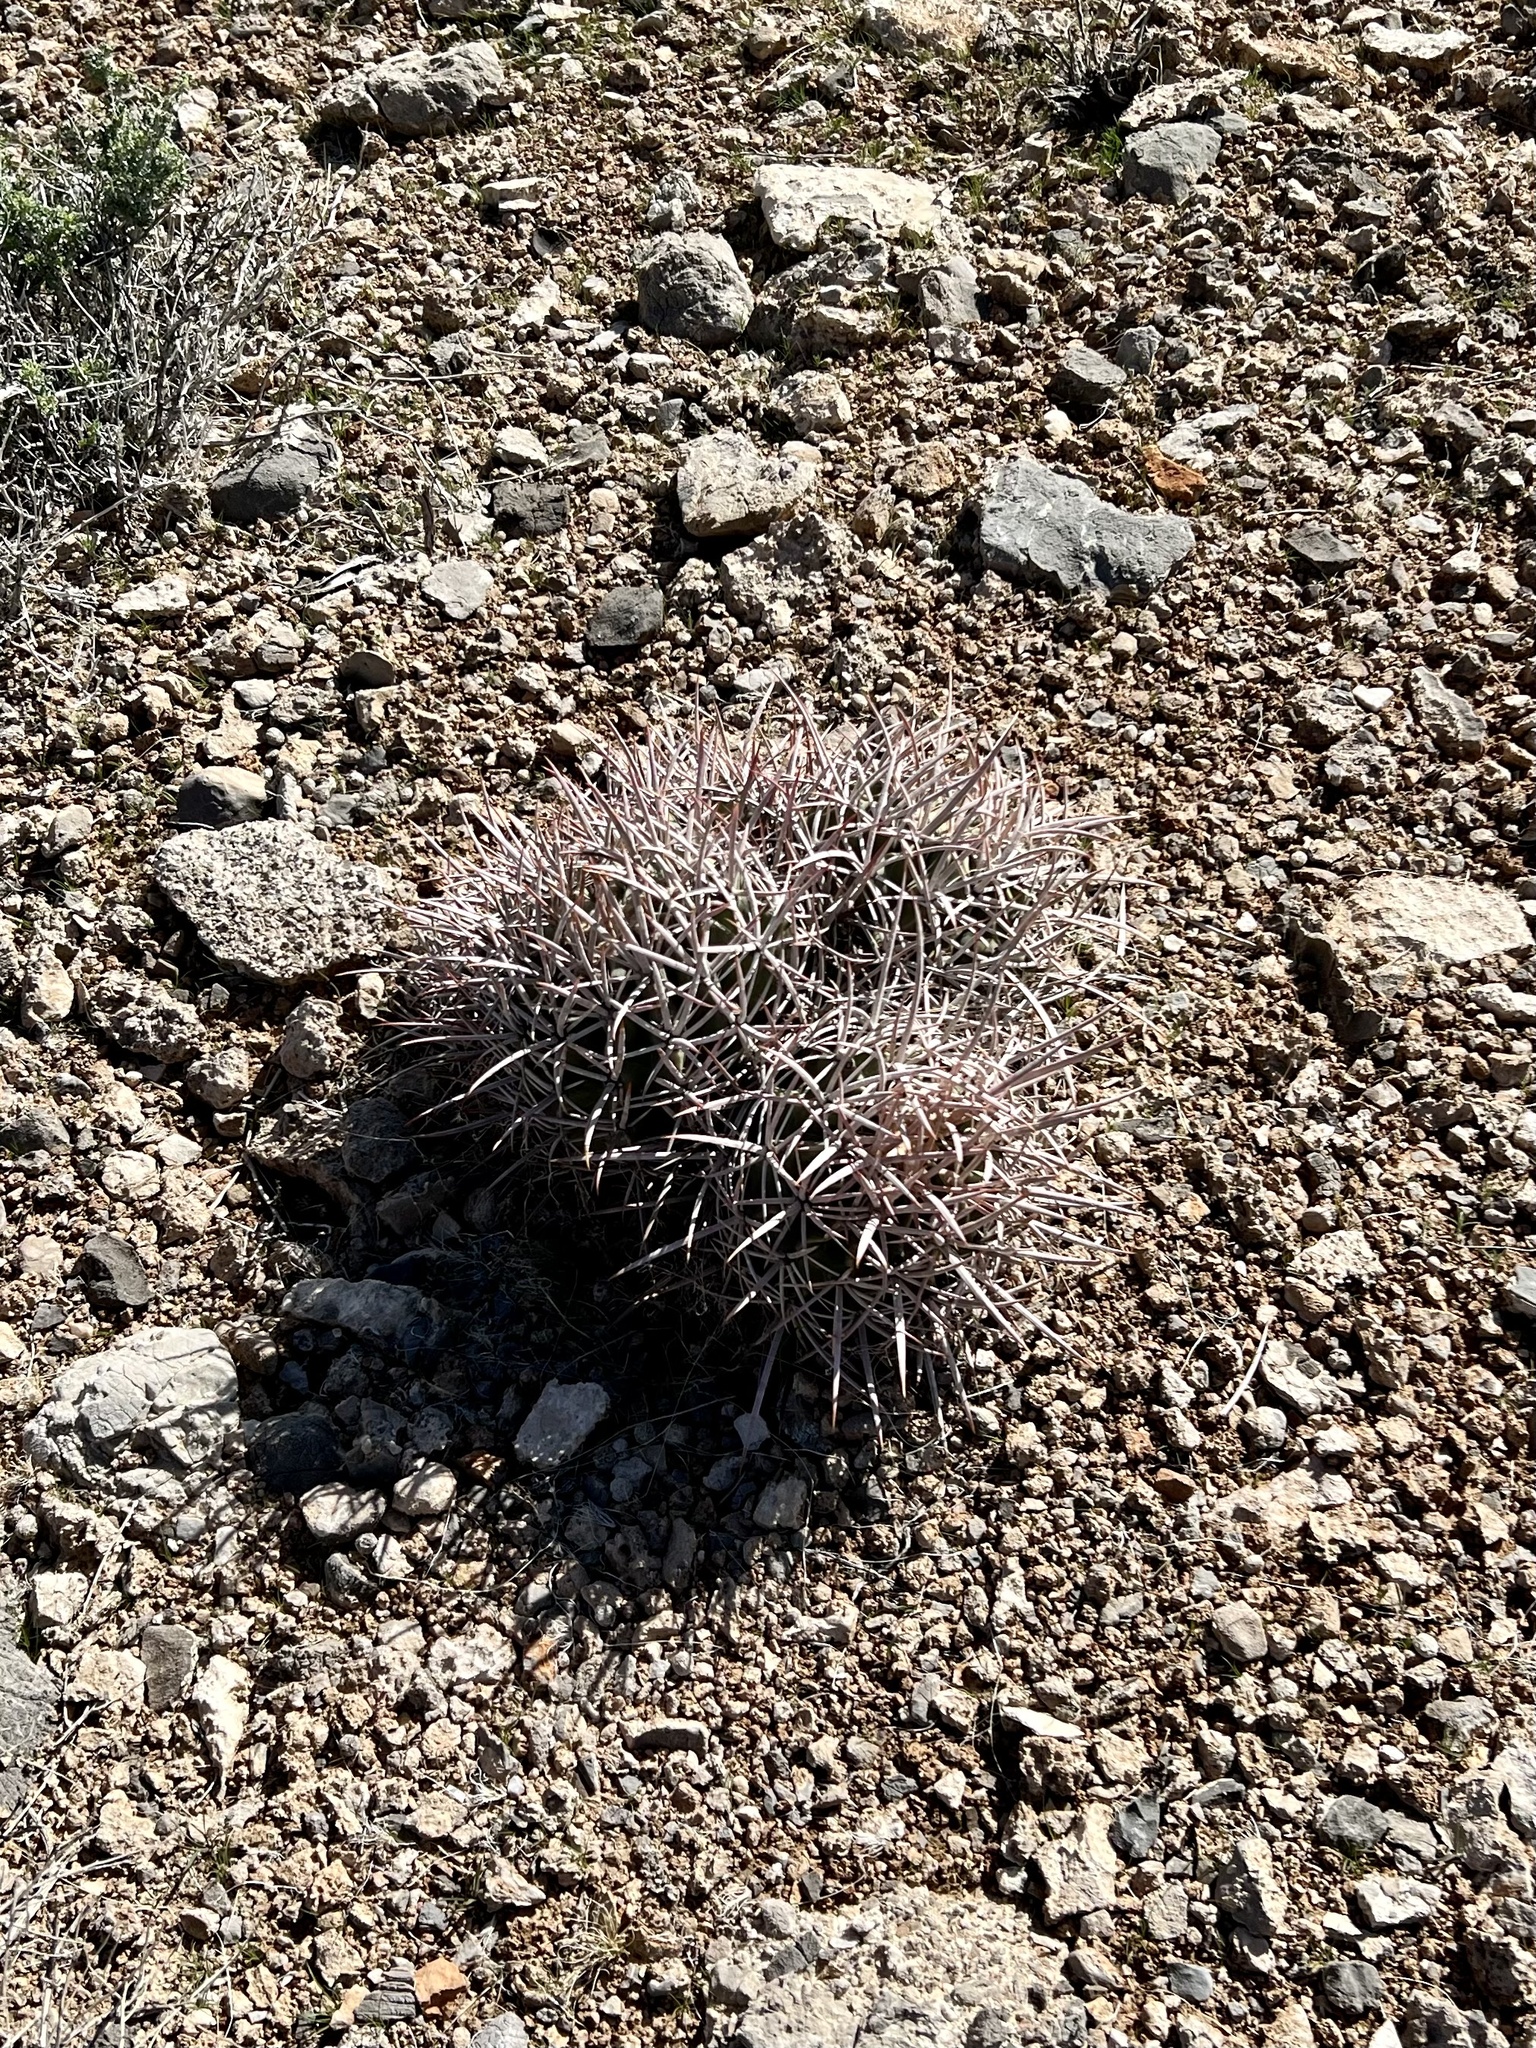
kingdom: Plantae
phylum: Tracheophyta
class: Magnoliopsida
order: Caryophyllales
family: Cactaceae
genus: Echinocactus
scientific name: Echinocactus polycephalus
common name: Cottontop cactus
